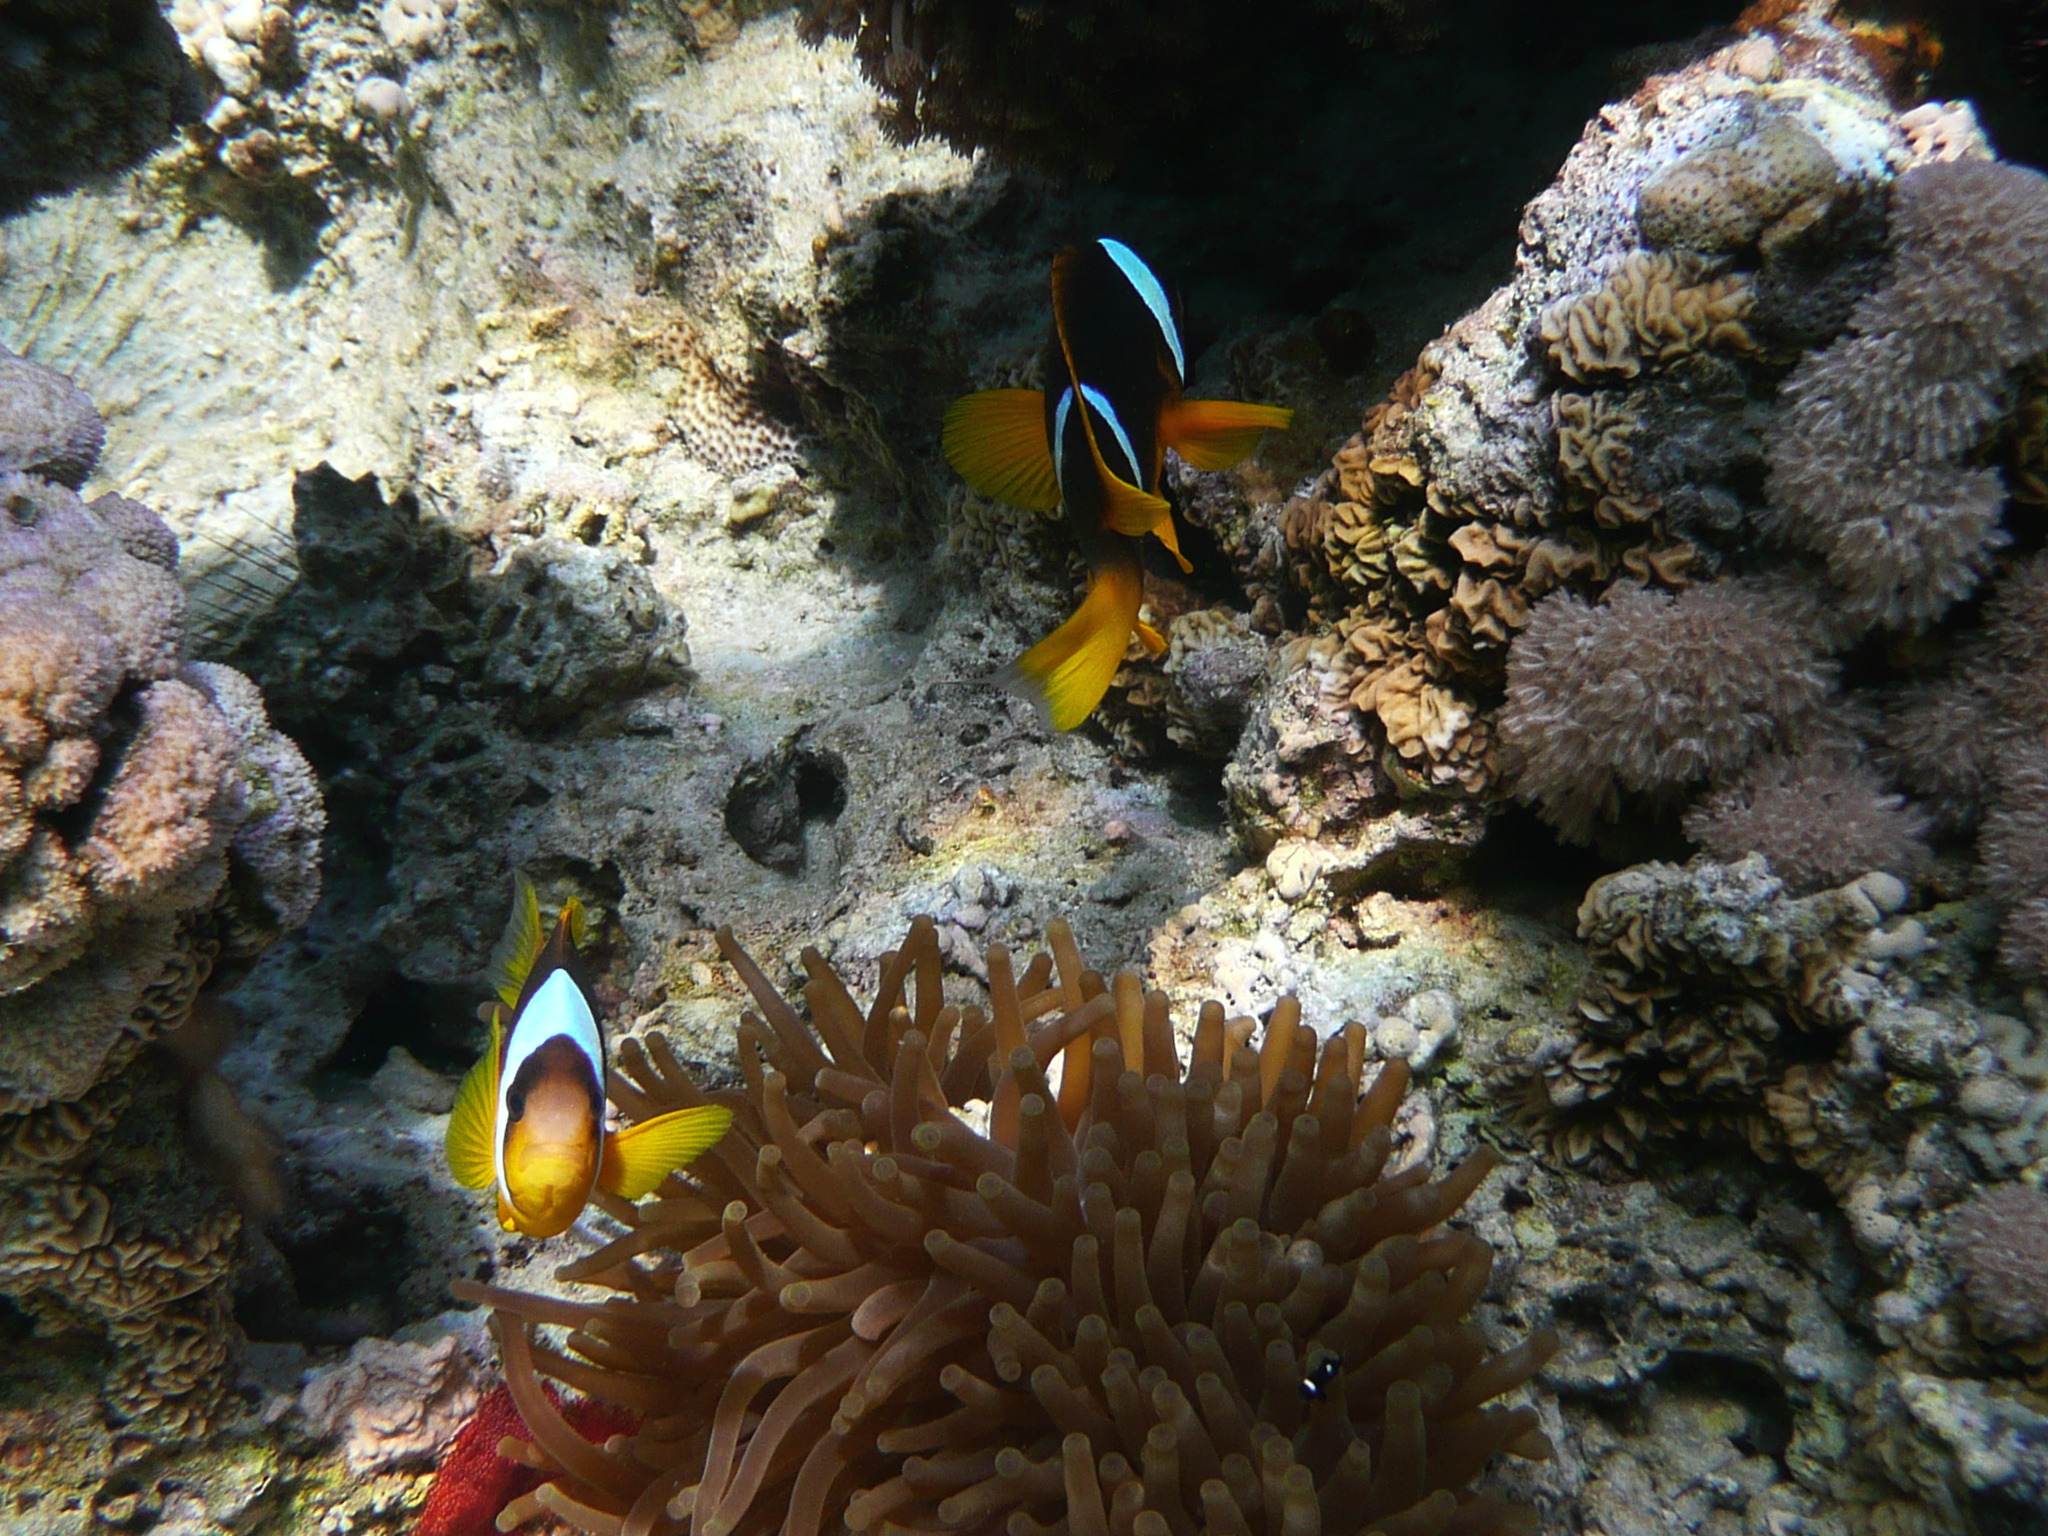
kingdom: Animalia
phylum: Chordata
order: Perciformes
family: Pomacentridae
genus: Amphiprion
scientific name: Amphiprion bicinctus
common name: Two-banded anemonefish
